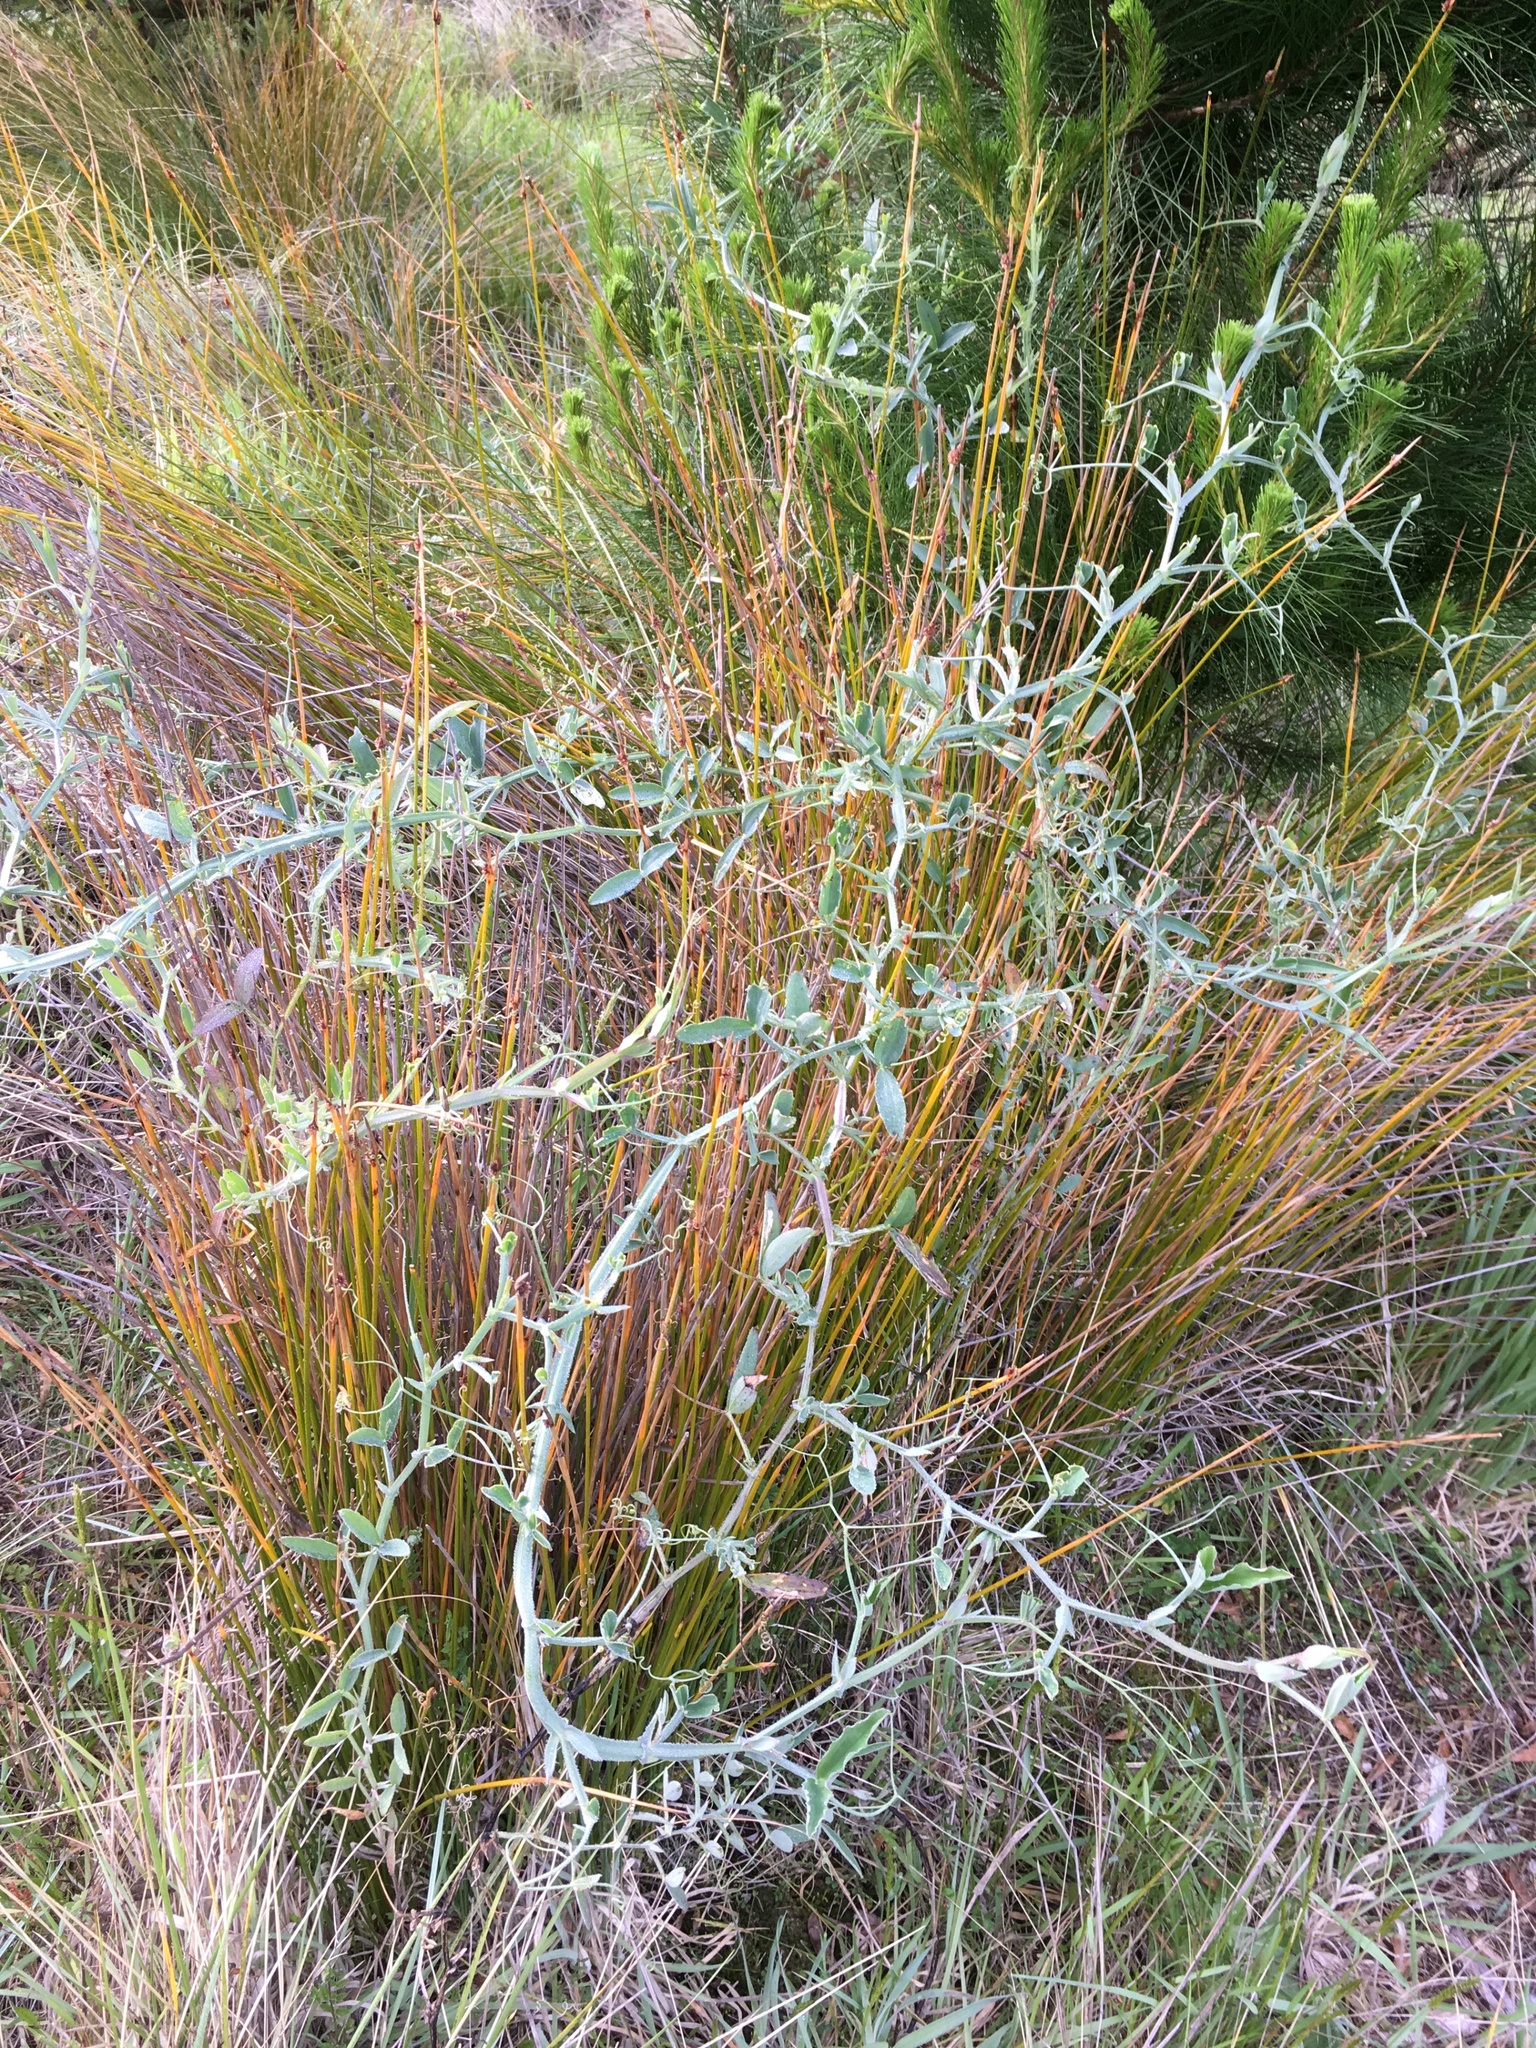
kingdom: Plantae
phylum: Tracheophyta
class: Magnoliopsida
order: Fabales
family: Fabaceae
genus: Lathyrus
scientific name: Lathyrus tingitanus
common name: Tangier pea
